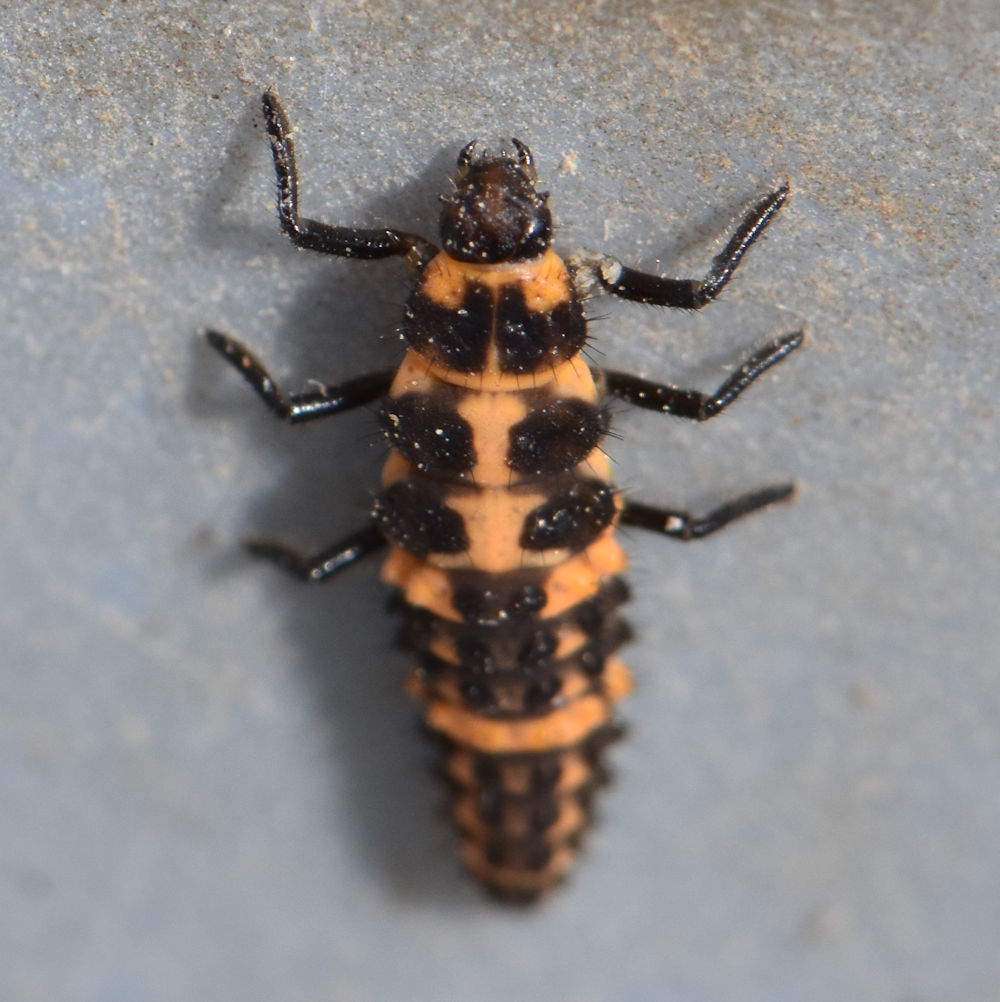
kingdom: Animalia
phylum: Arthropoda
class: Insecta
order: Coleoptera
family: Coccinellidae
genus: Coleomegilla
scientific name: Coleomegilla maculata
